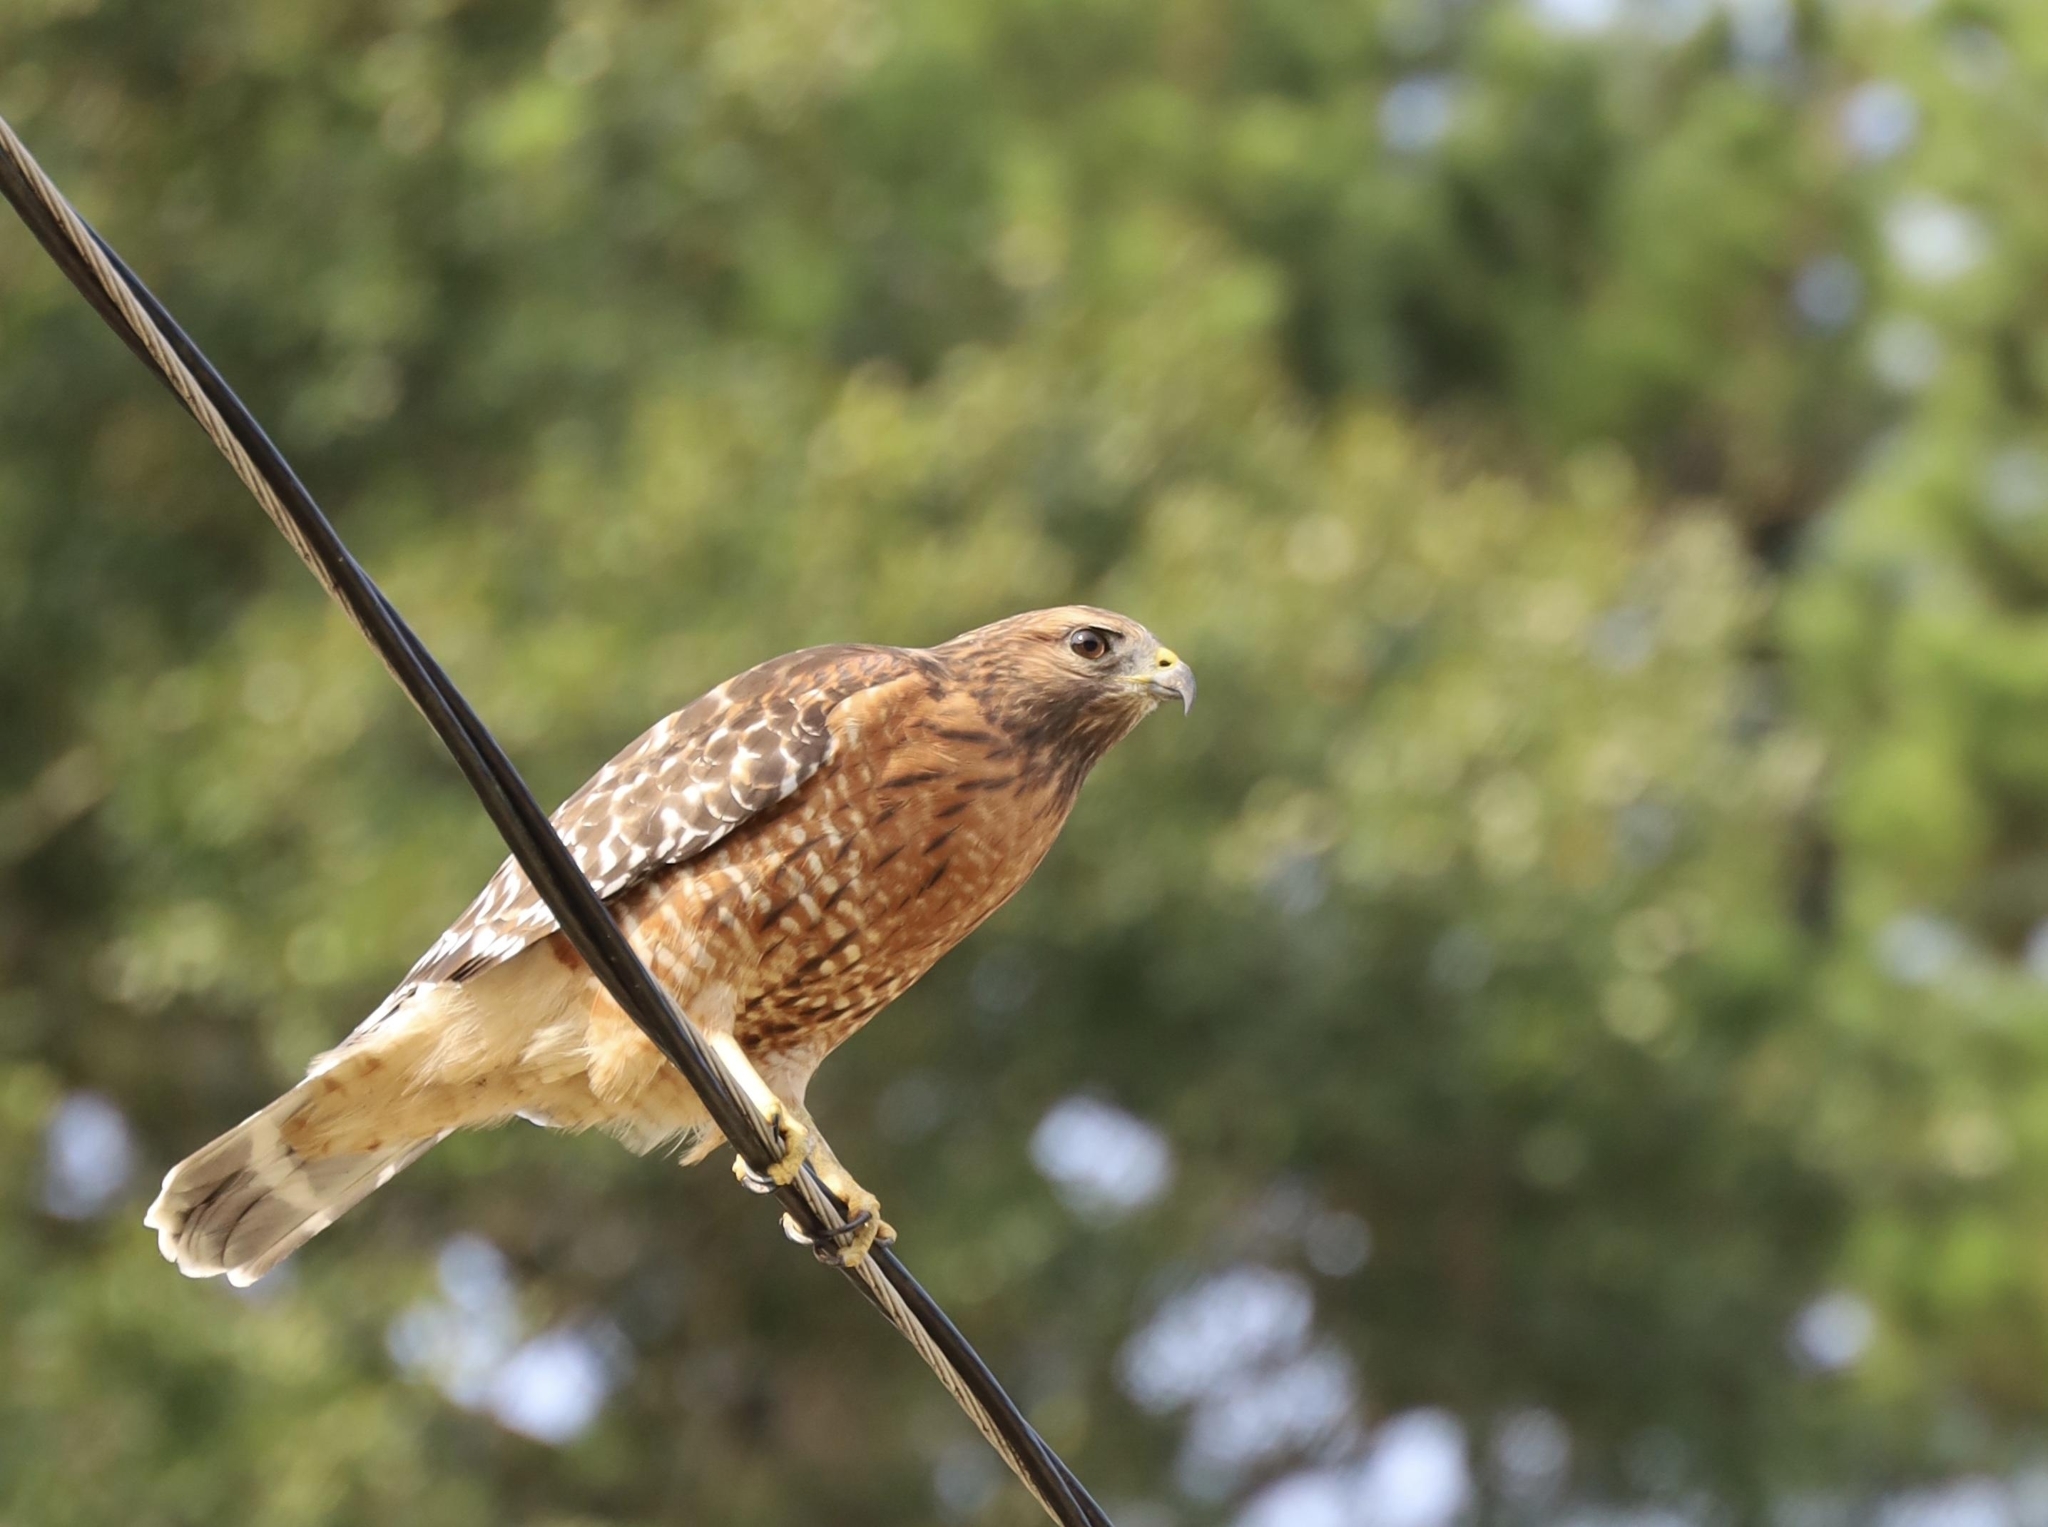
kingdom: Animalia
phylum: Chordata
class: Aves
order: Accipitriformes
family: Accipitridae
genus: Buteo
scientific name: Buteo lineatus
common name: Red-shouldered hawk
